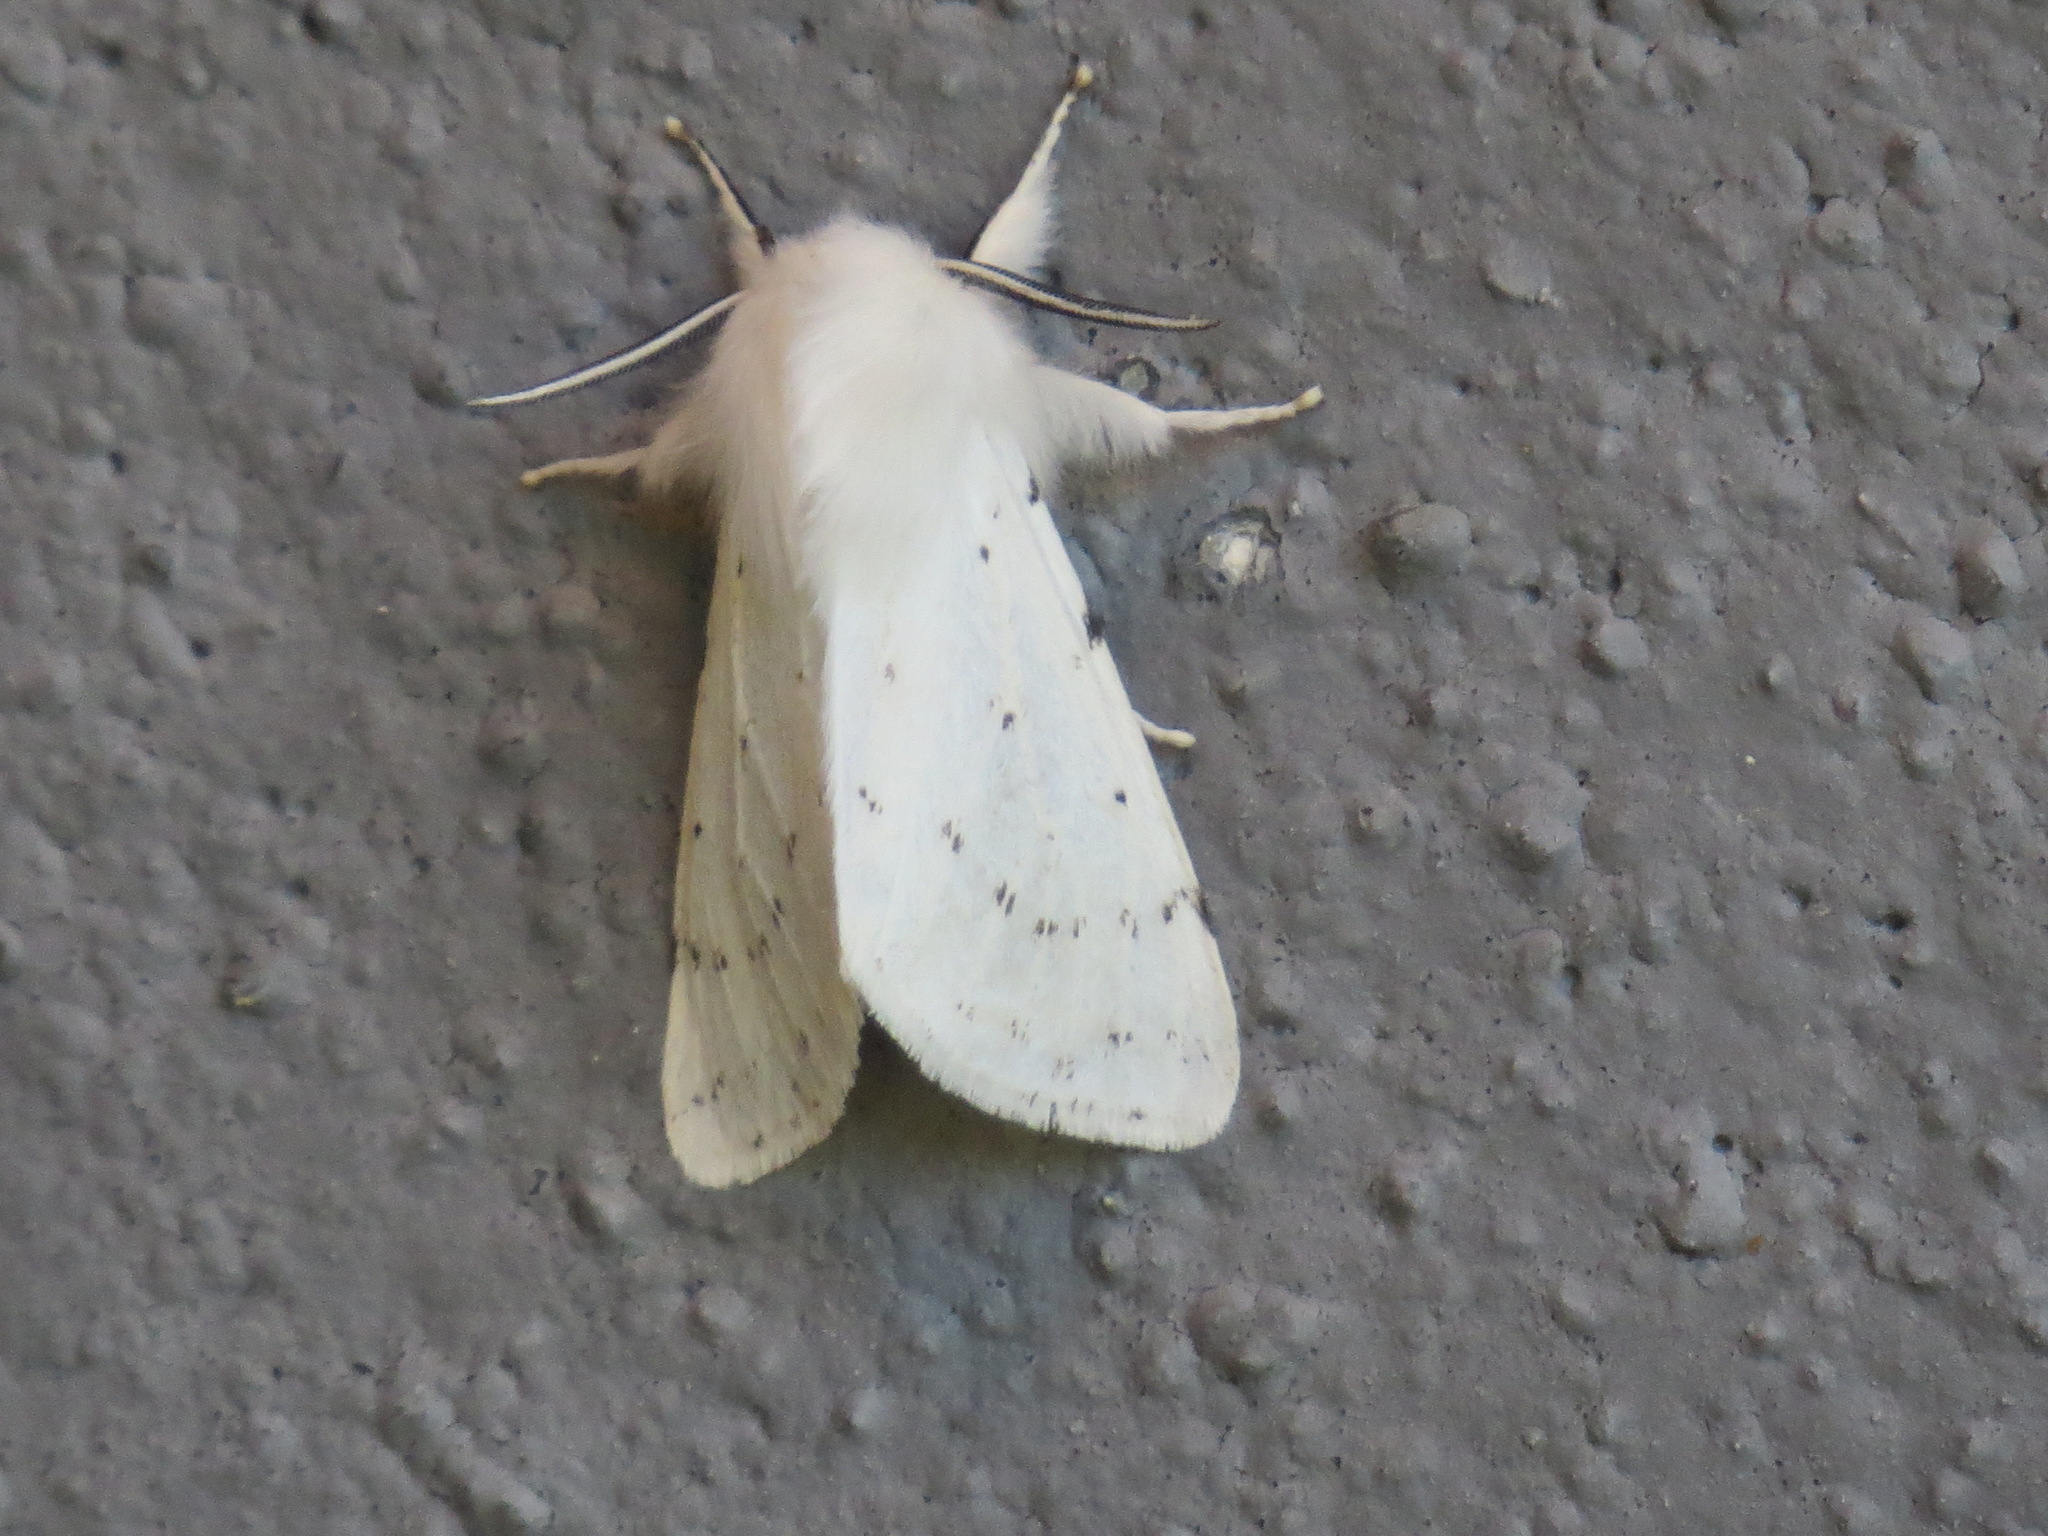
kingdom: Animalia
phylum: Arthropoda
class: Insecta
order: Lepidoptera
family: Erebidae
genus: Spilosoma
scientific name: Spilosoma vestalis
